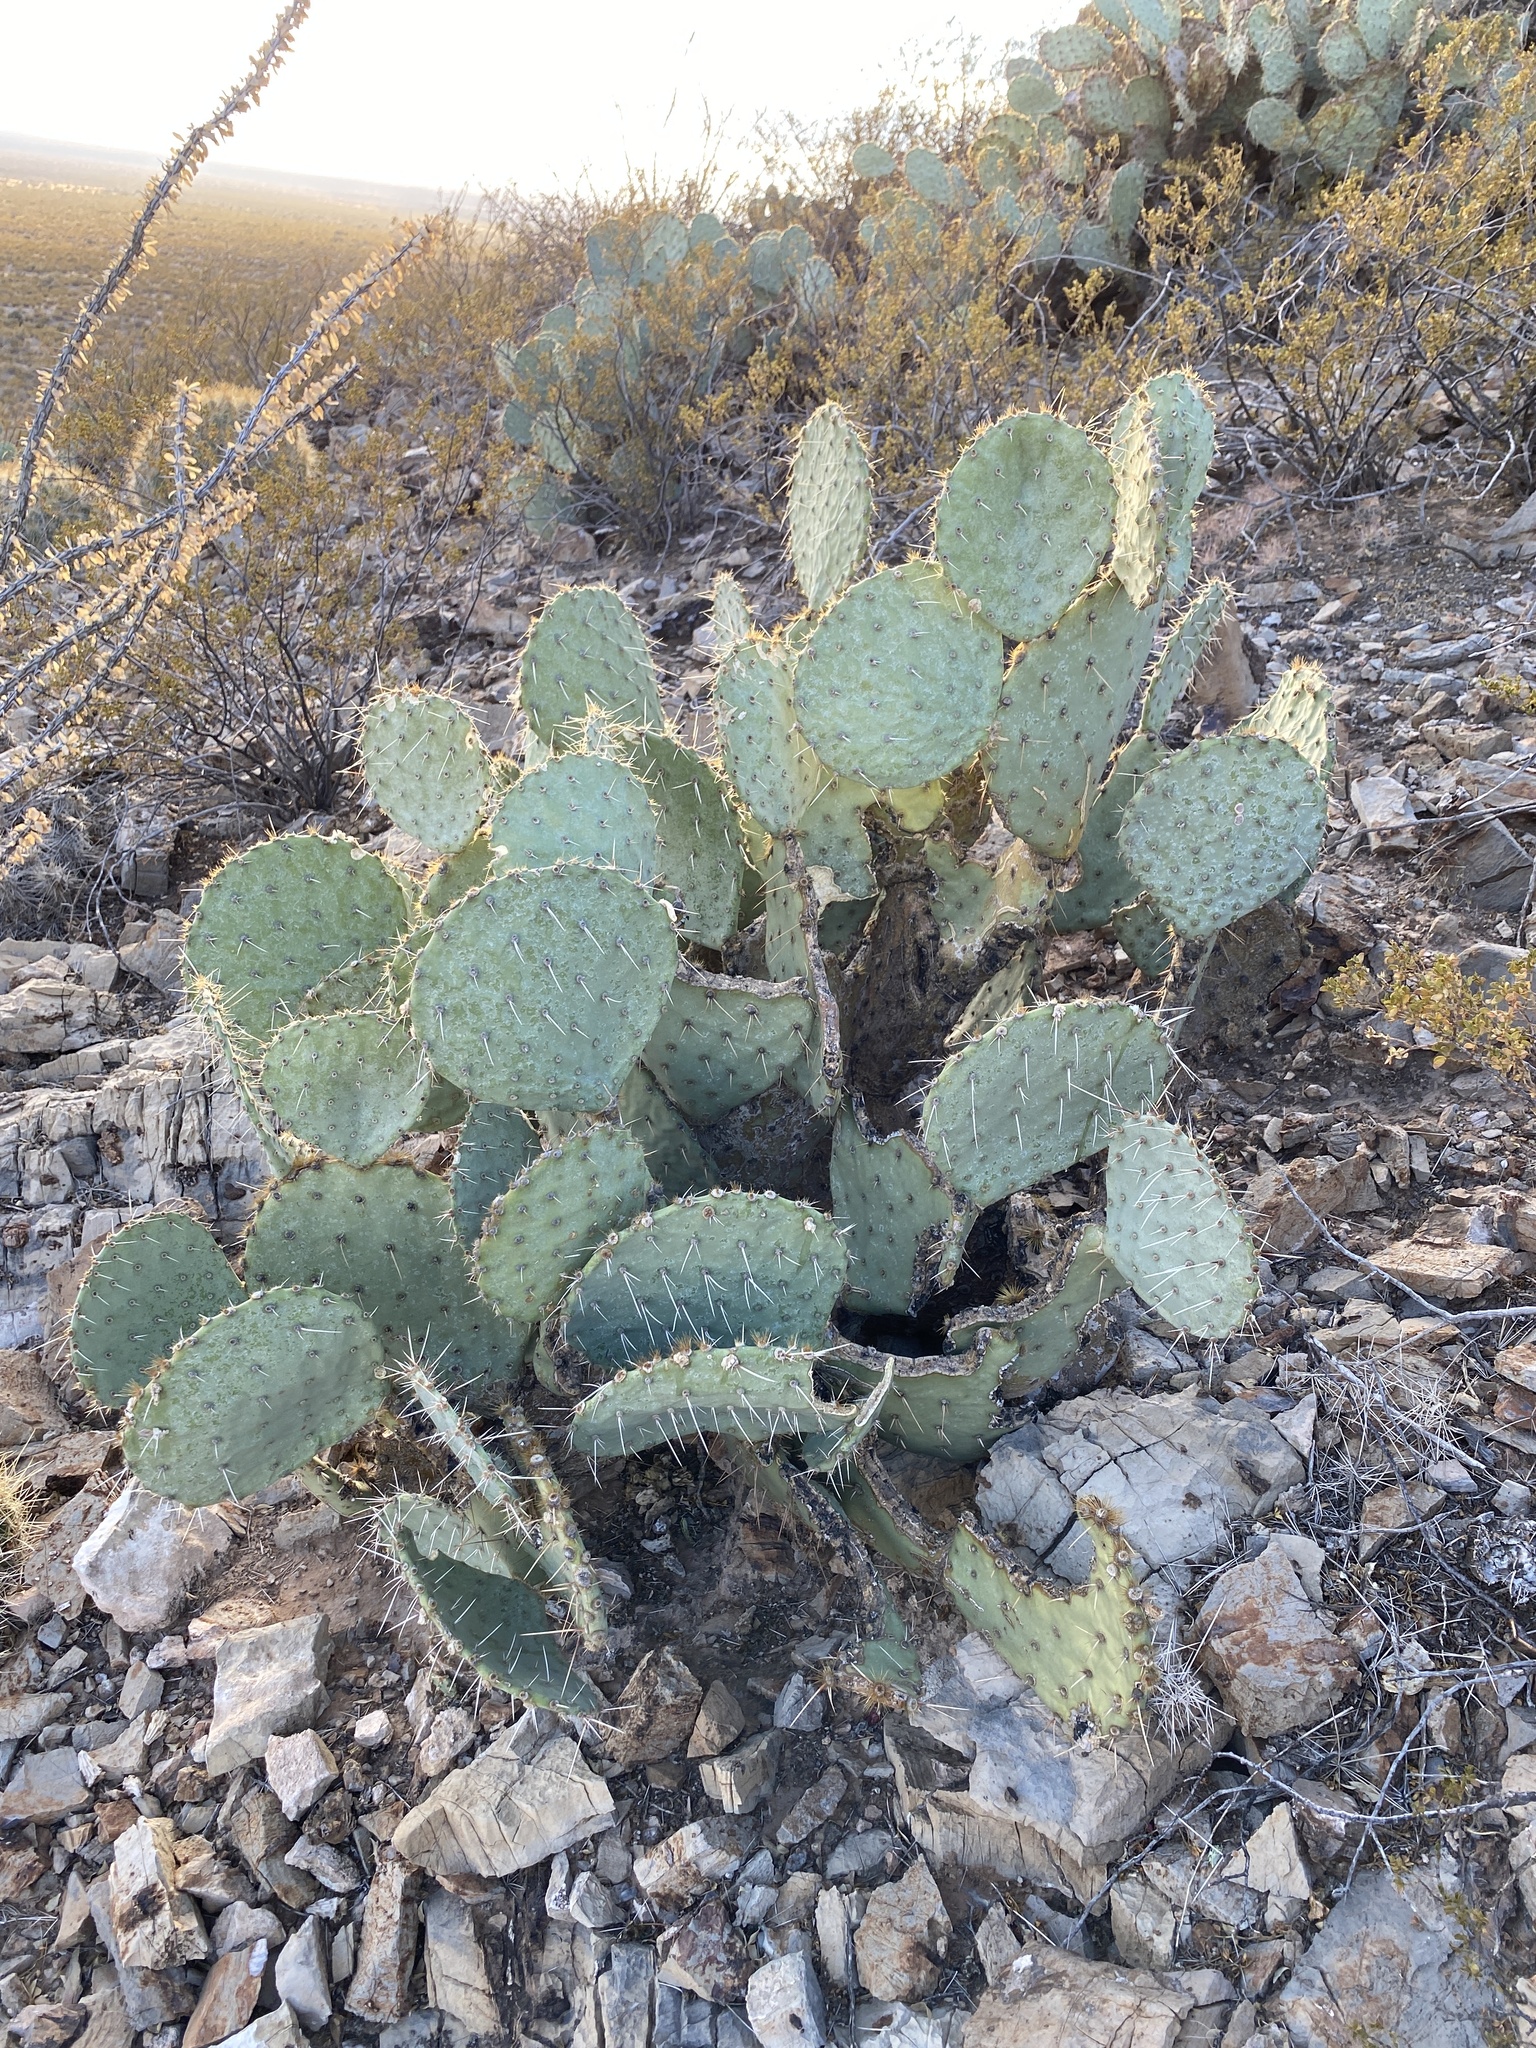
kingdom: Plantae
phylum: Tracheophyta
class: Magnoliopsida
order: Caryophyllales
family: Cactaceae
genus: Opuntia
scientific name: Opuntia engelmannii
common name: Cactus-apple
